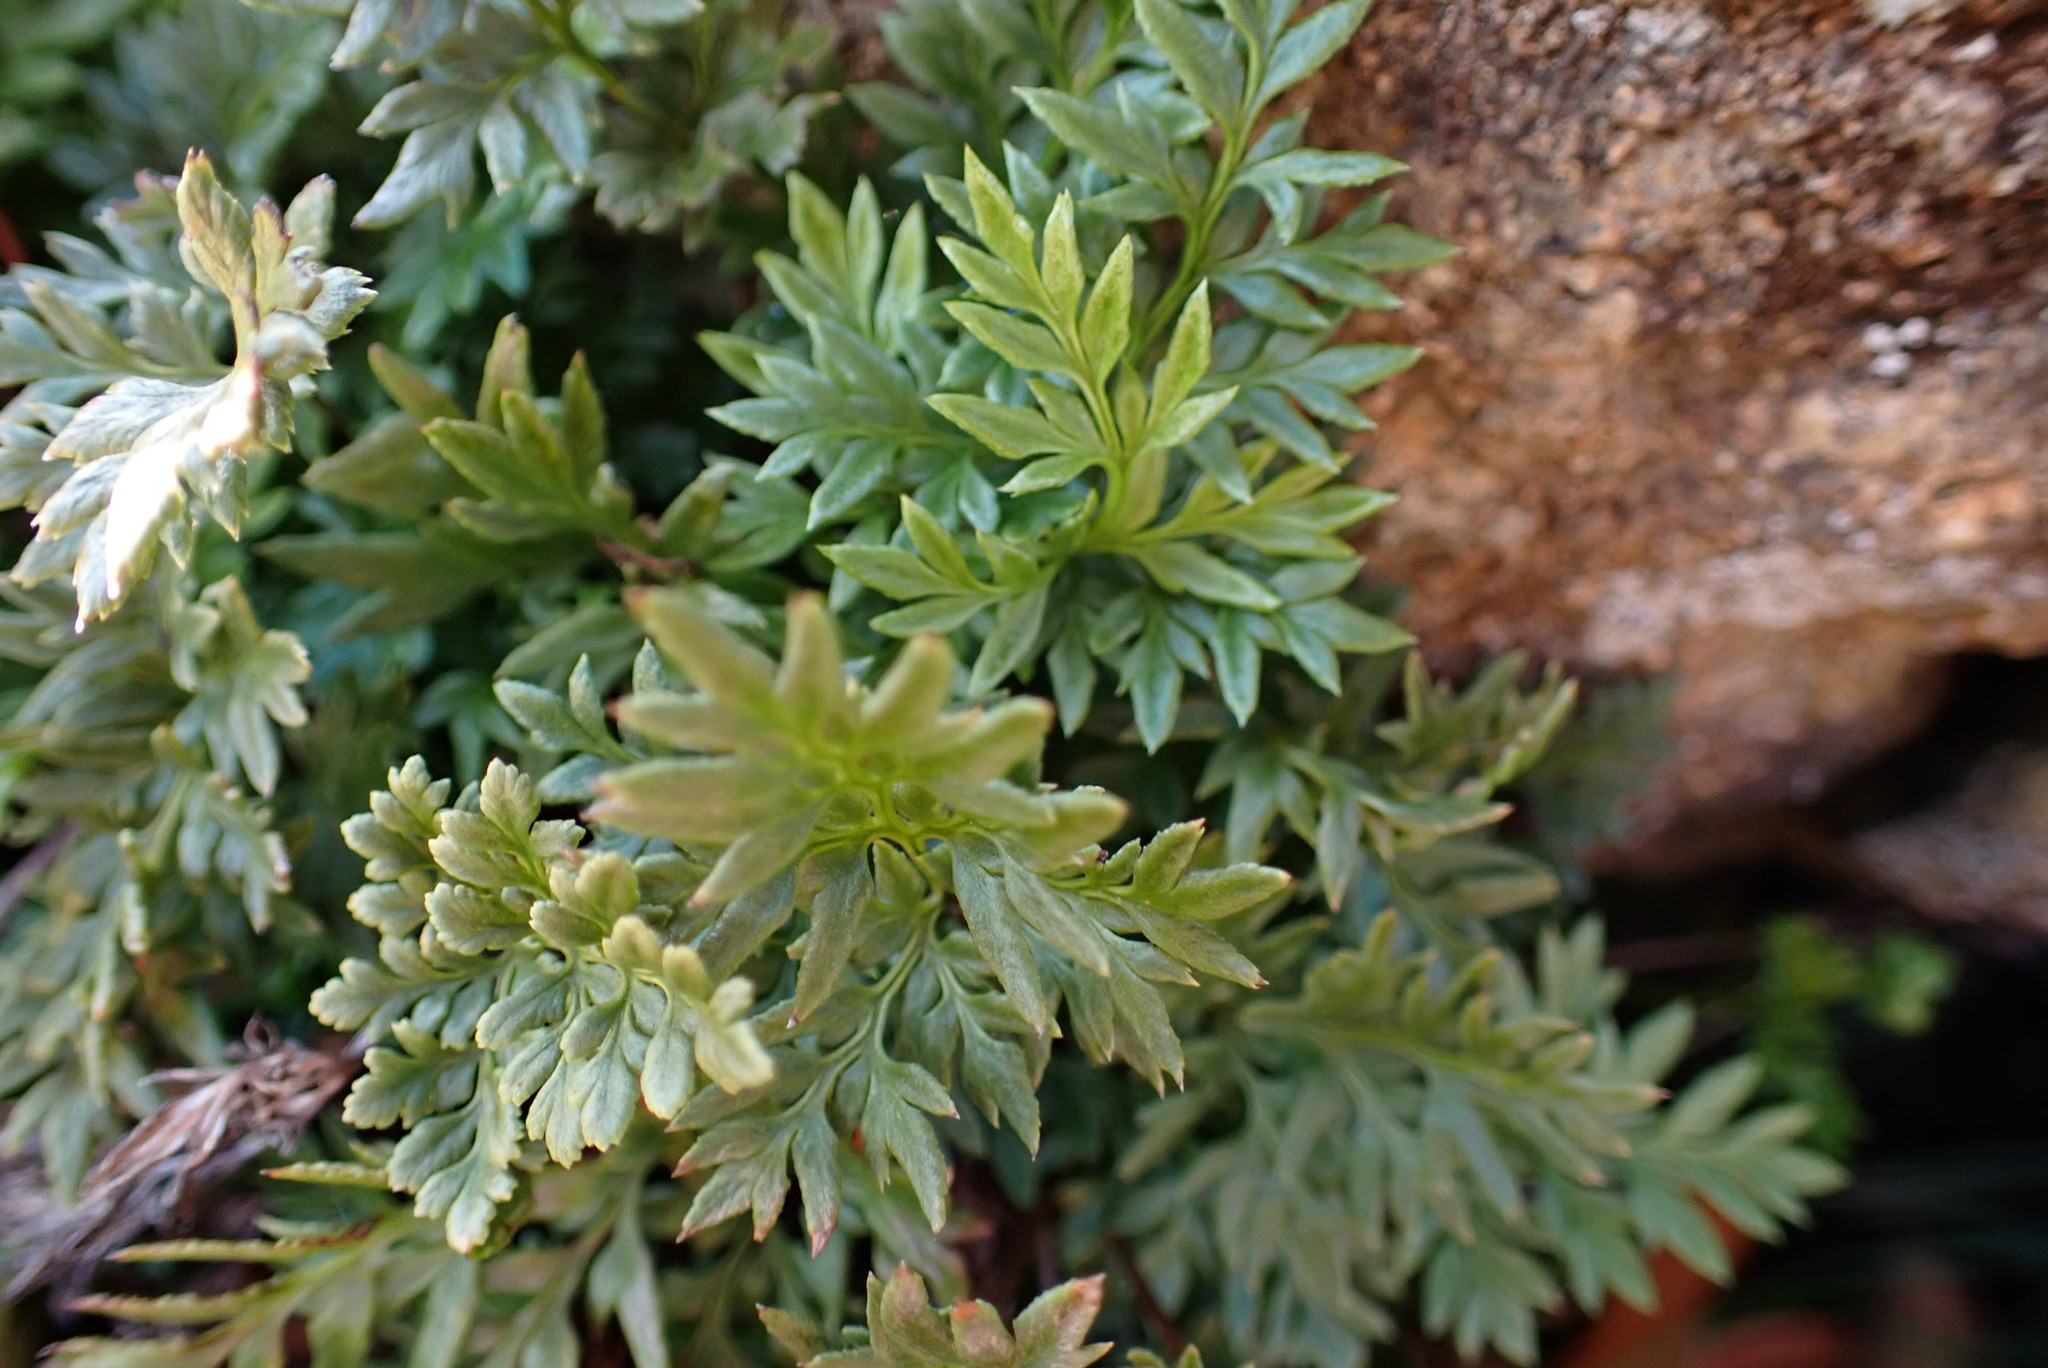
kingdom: Plantae
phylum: Tracheophyta
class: Polypodiopsida
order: Polypodiales
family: Pteridaceae
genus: Aspidotis
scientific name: Aspidotis densa
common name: Indian's dream
